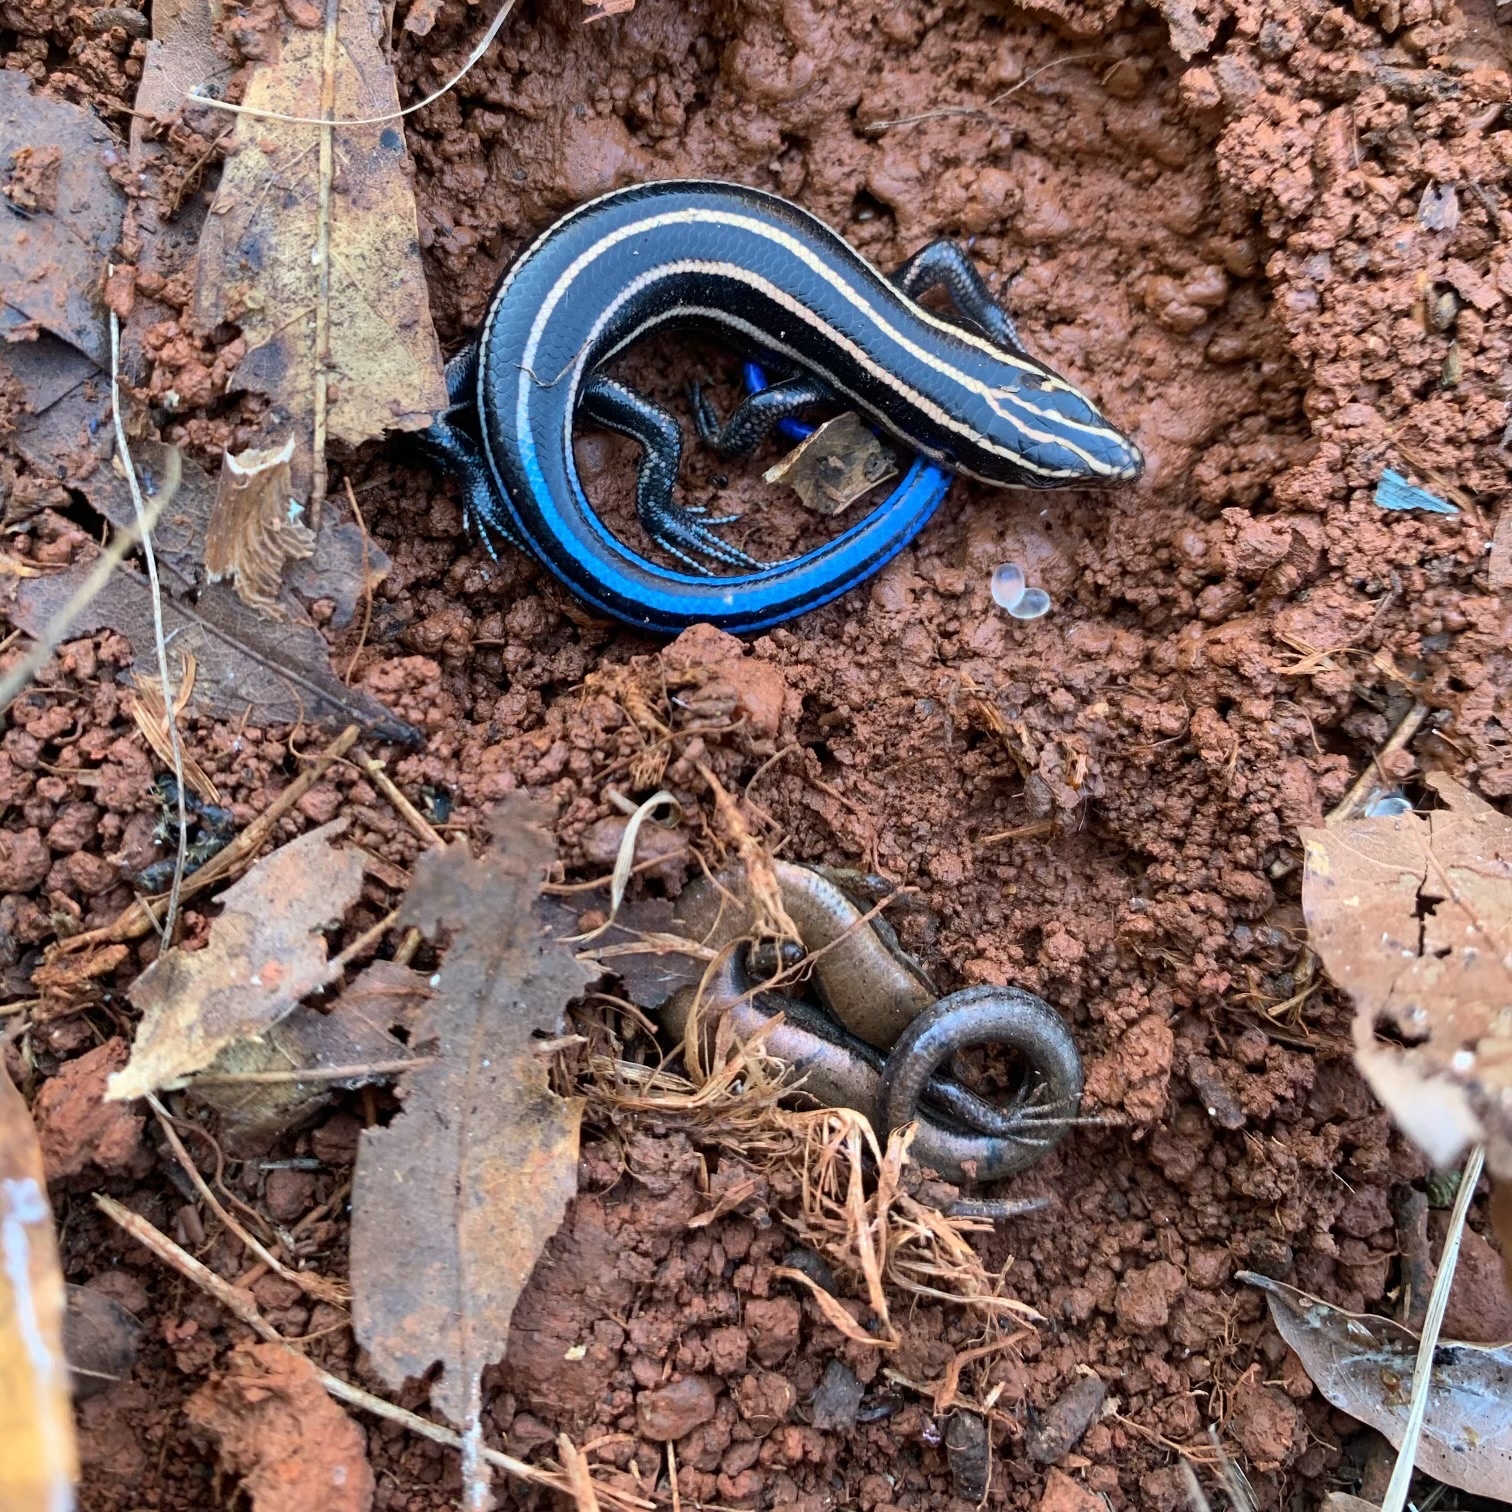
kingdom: Animalia
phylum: Chordata
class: Squamata
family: Scincidae
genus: Plestiodon
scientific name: Plestiodon fasciatus
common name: Five-lined skink
